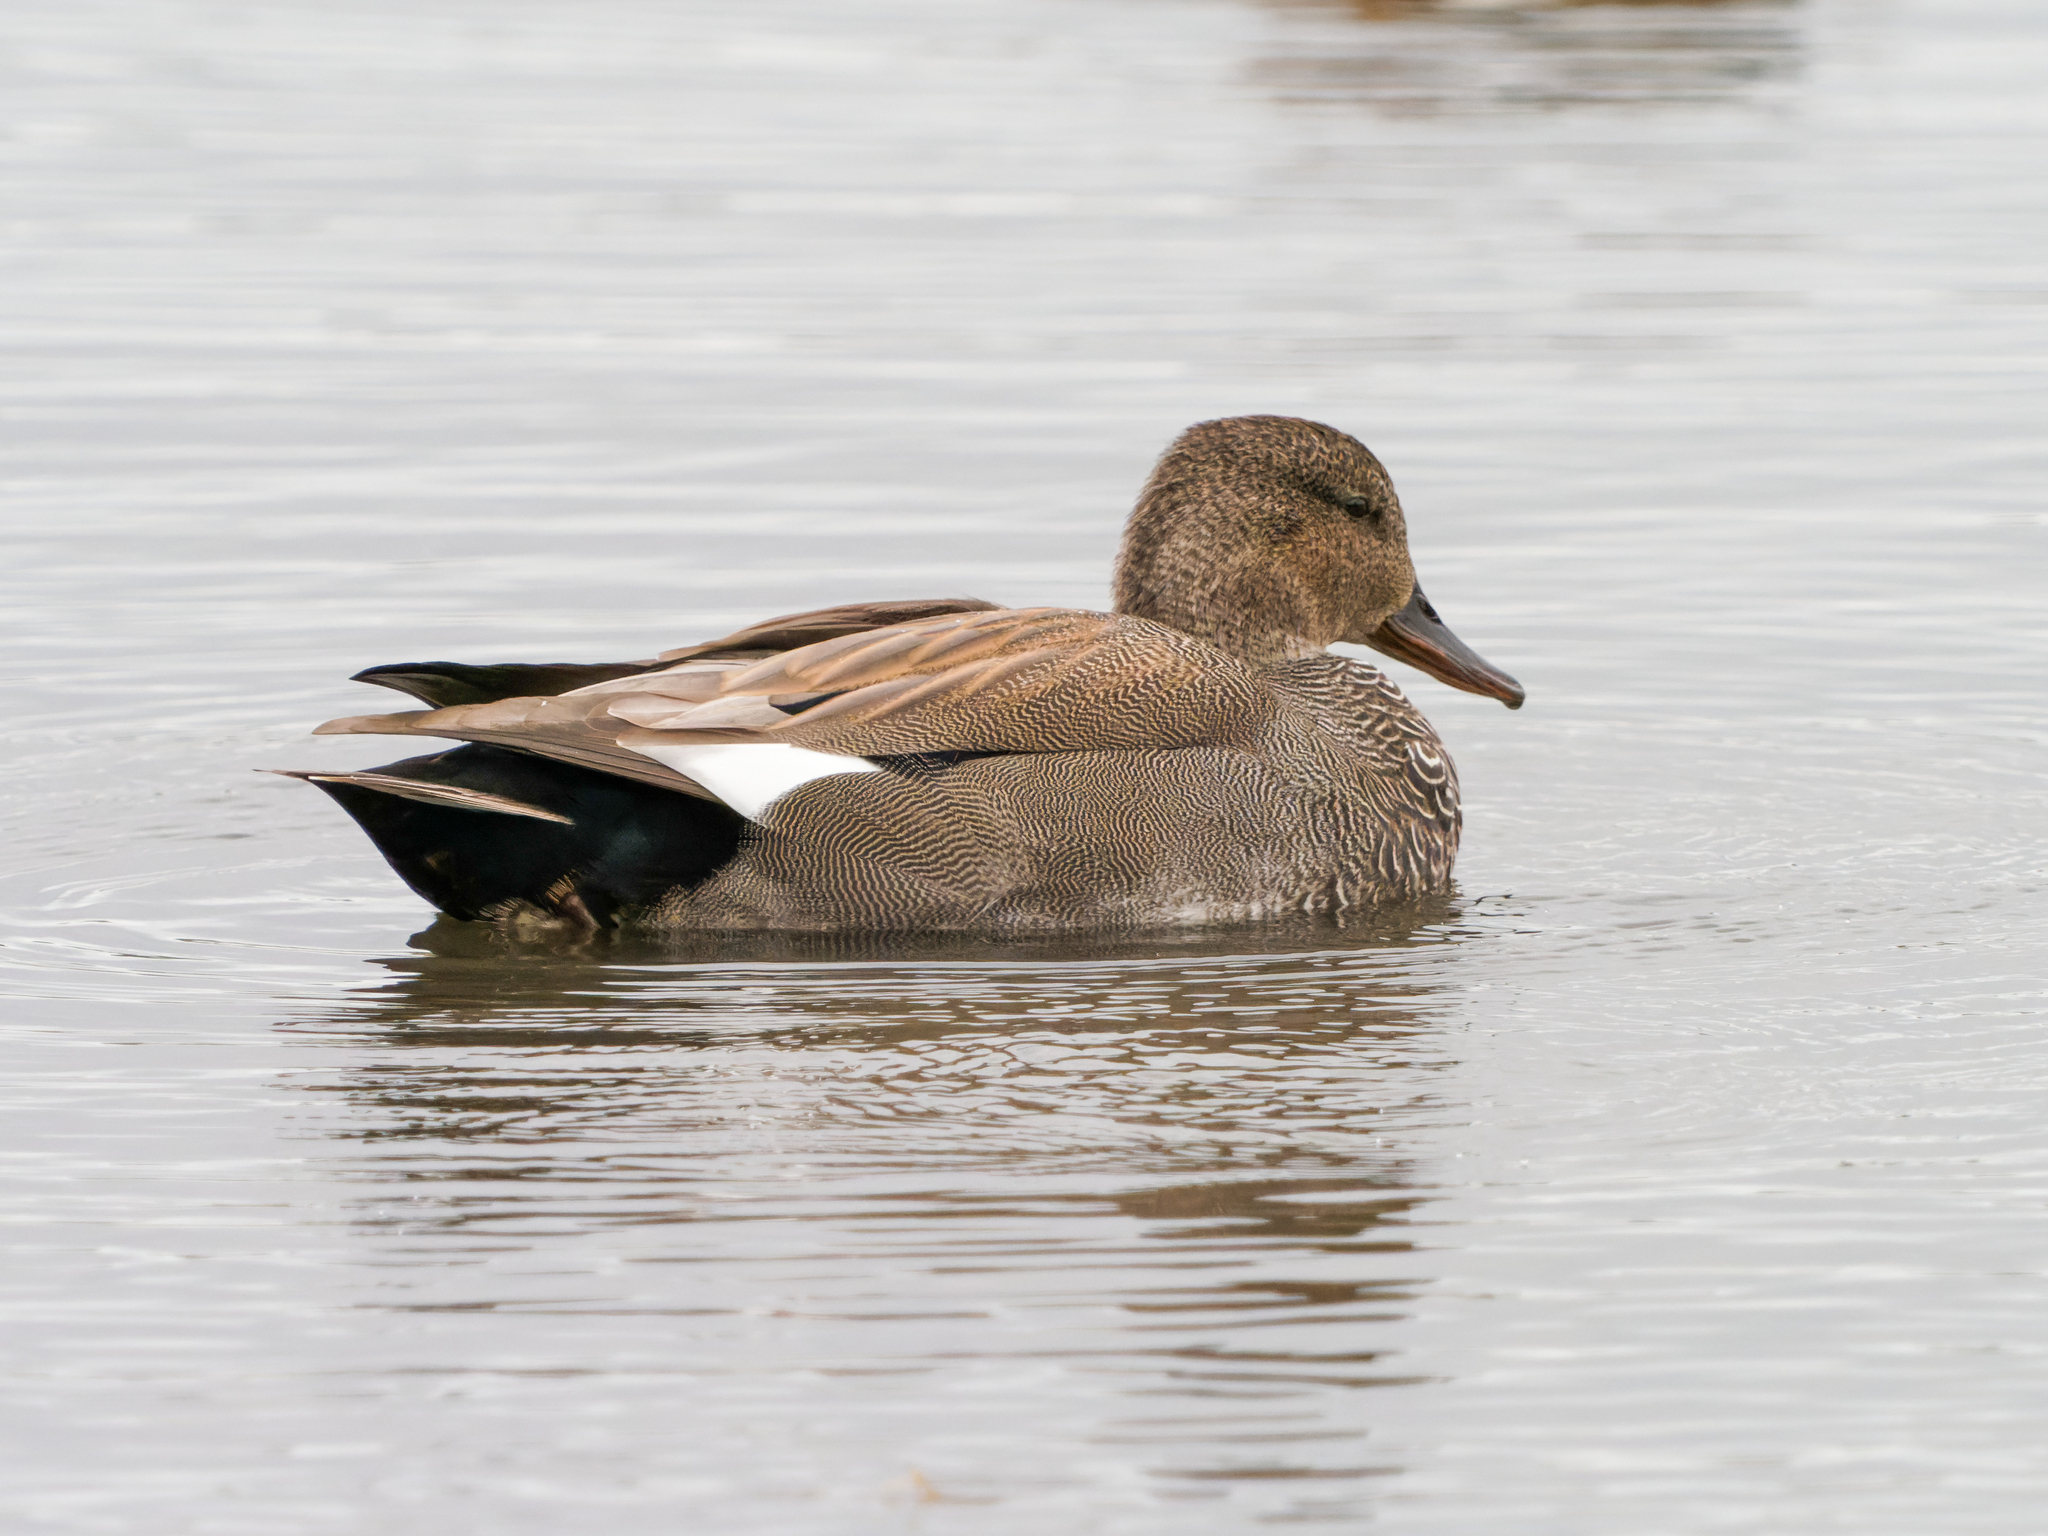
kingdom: Animalia
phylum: Chordata
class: Aves
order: Anseriformes
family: Anatidae
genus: Mareca
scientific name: Mareca strepera
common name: Gadwall
